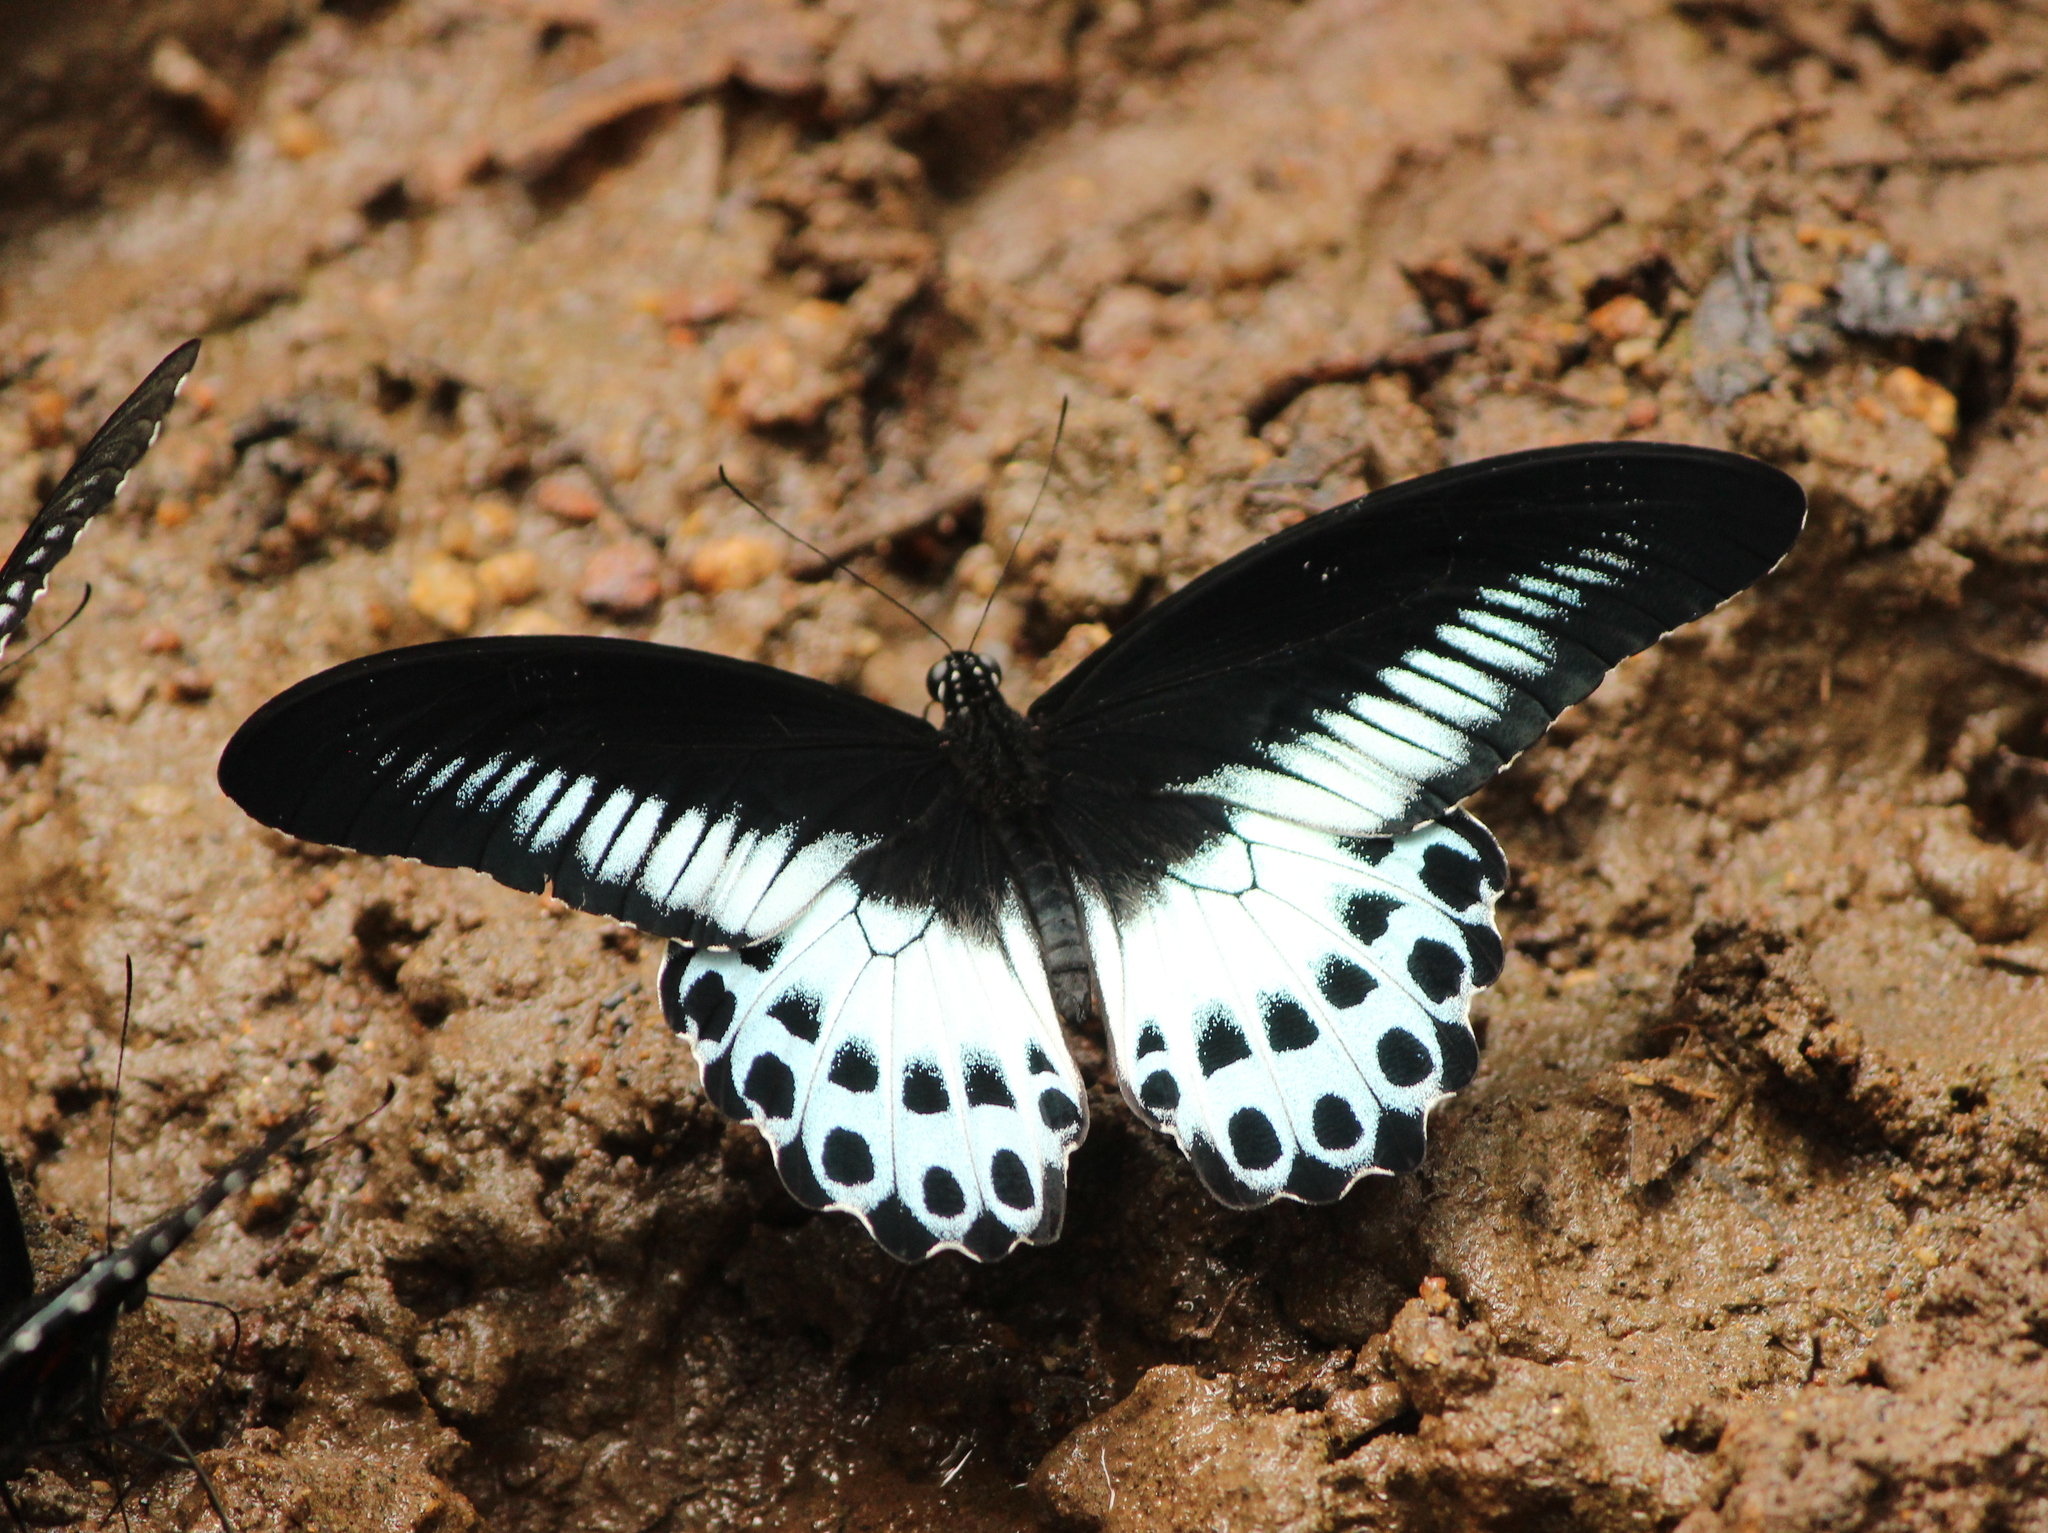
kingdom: Animalia
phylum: Arthropoda
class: Insecta
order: Lepidoptera
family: Papilionidae
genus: Papilio
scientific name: Papilio memnon
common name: Great mormon
